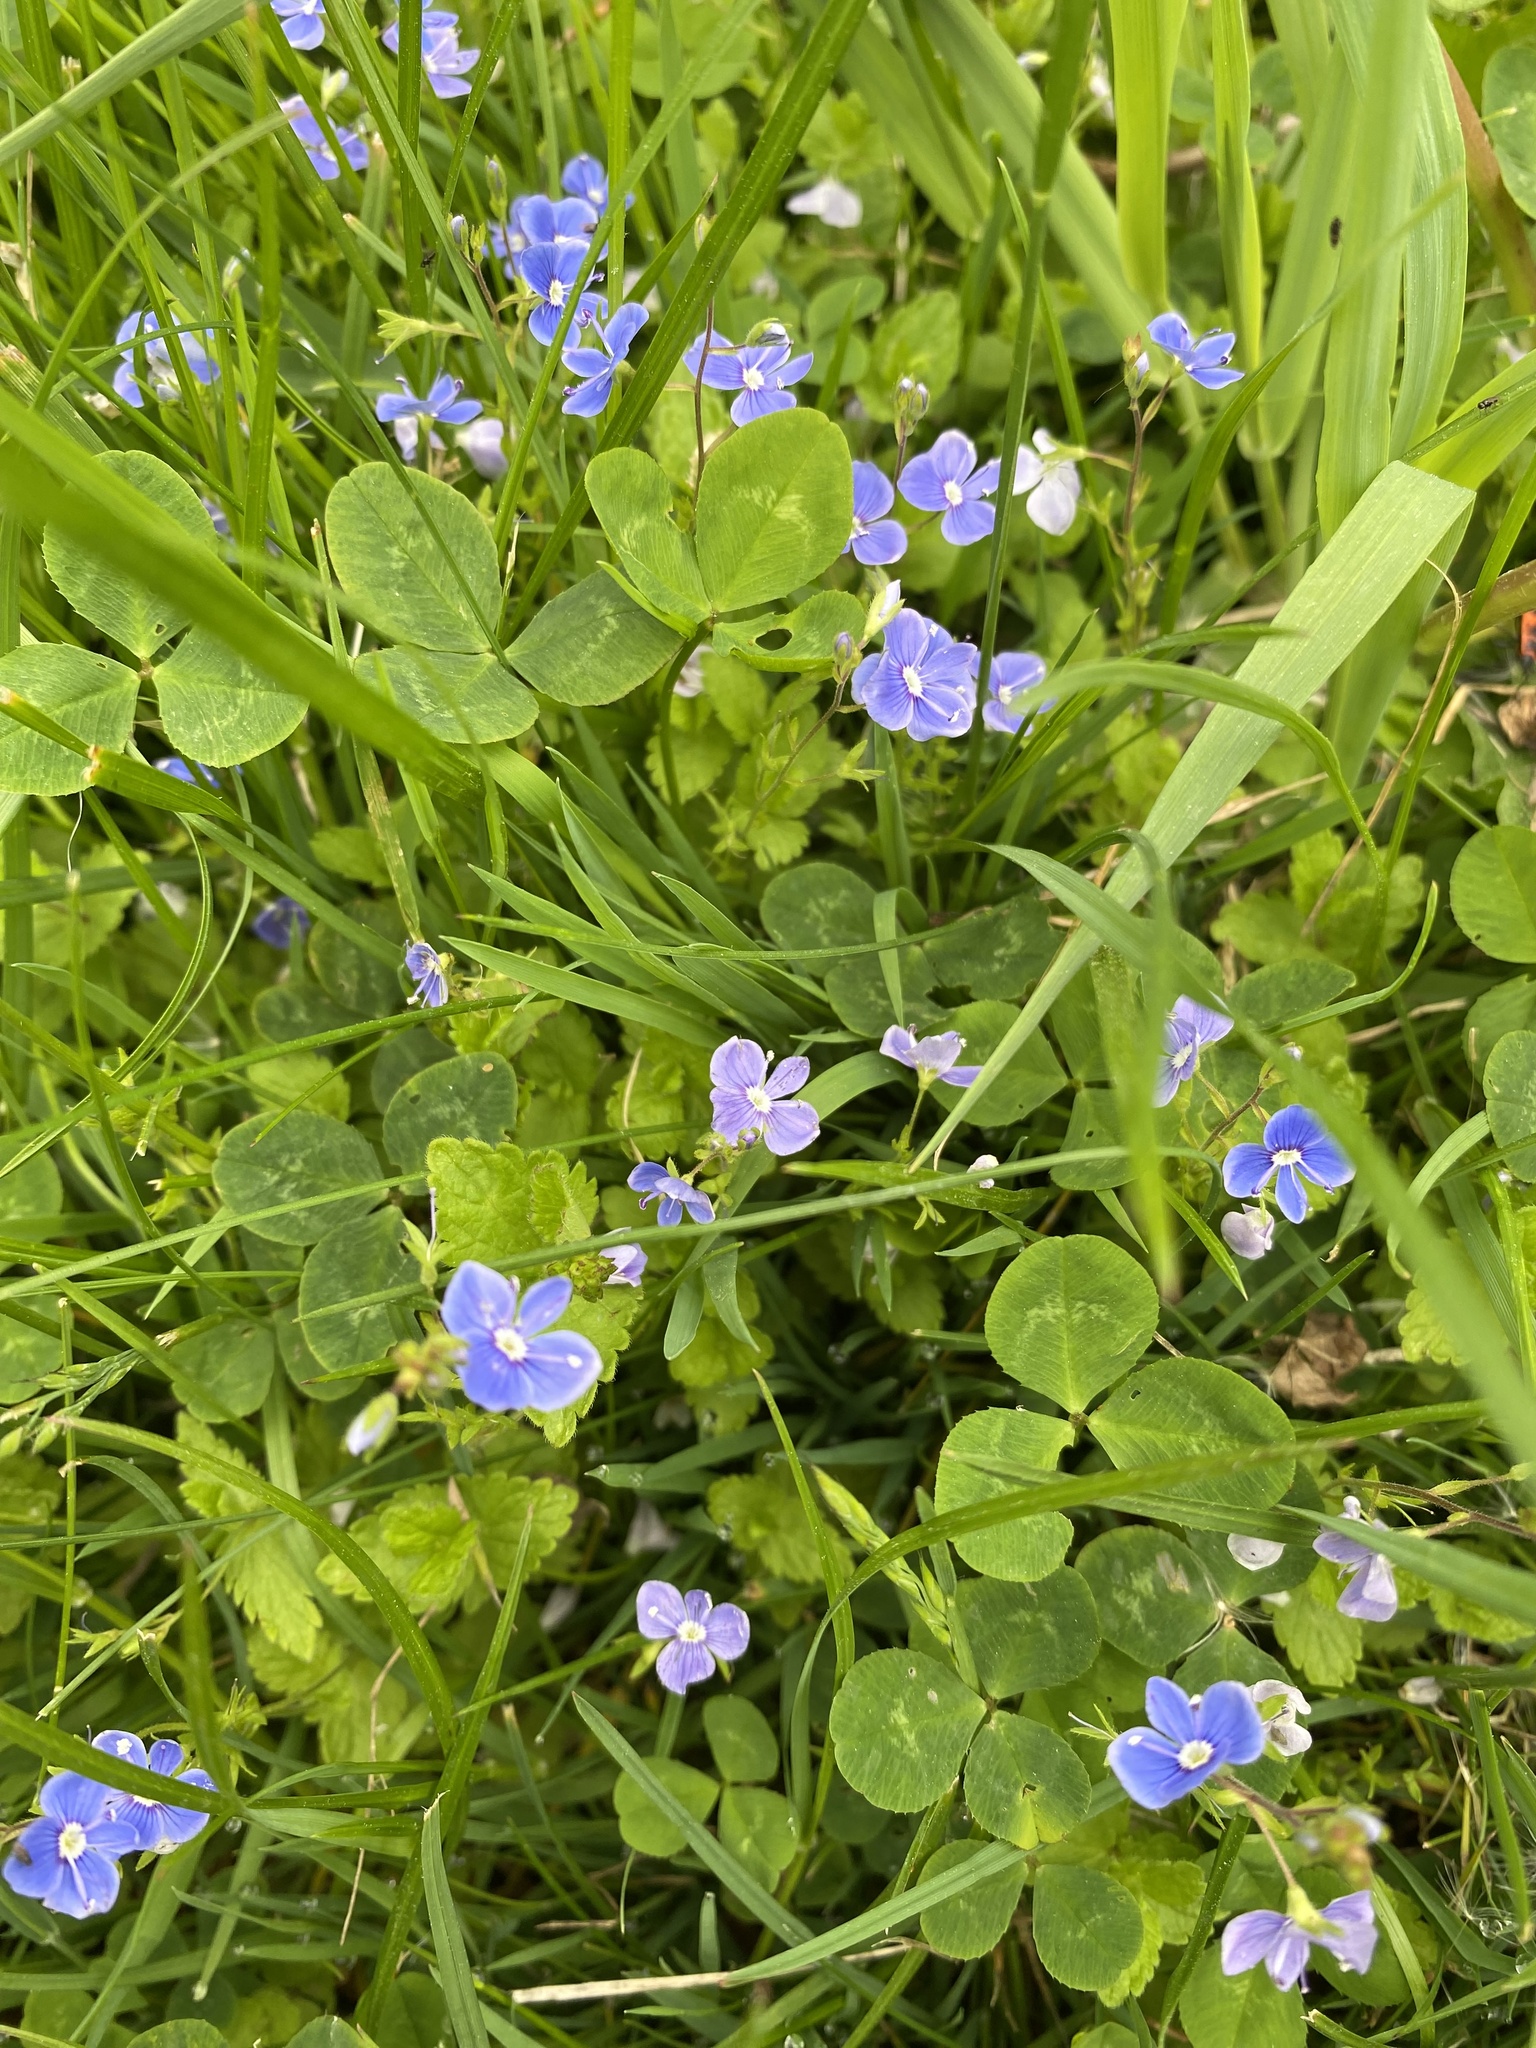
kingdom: Plantae
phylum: Tracheophyta
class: Magnoliopsida
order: Lamiales
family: Plantaginaceae
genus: Veronica
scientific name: Veronica chamaedrys
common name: Germander speedwell
